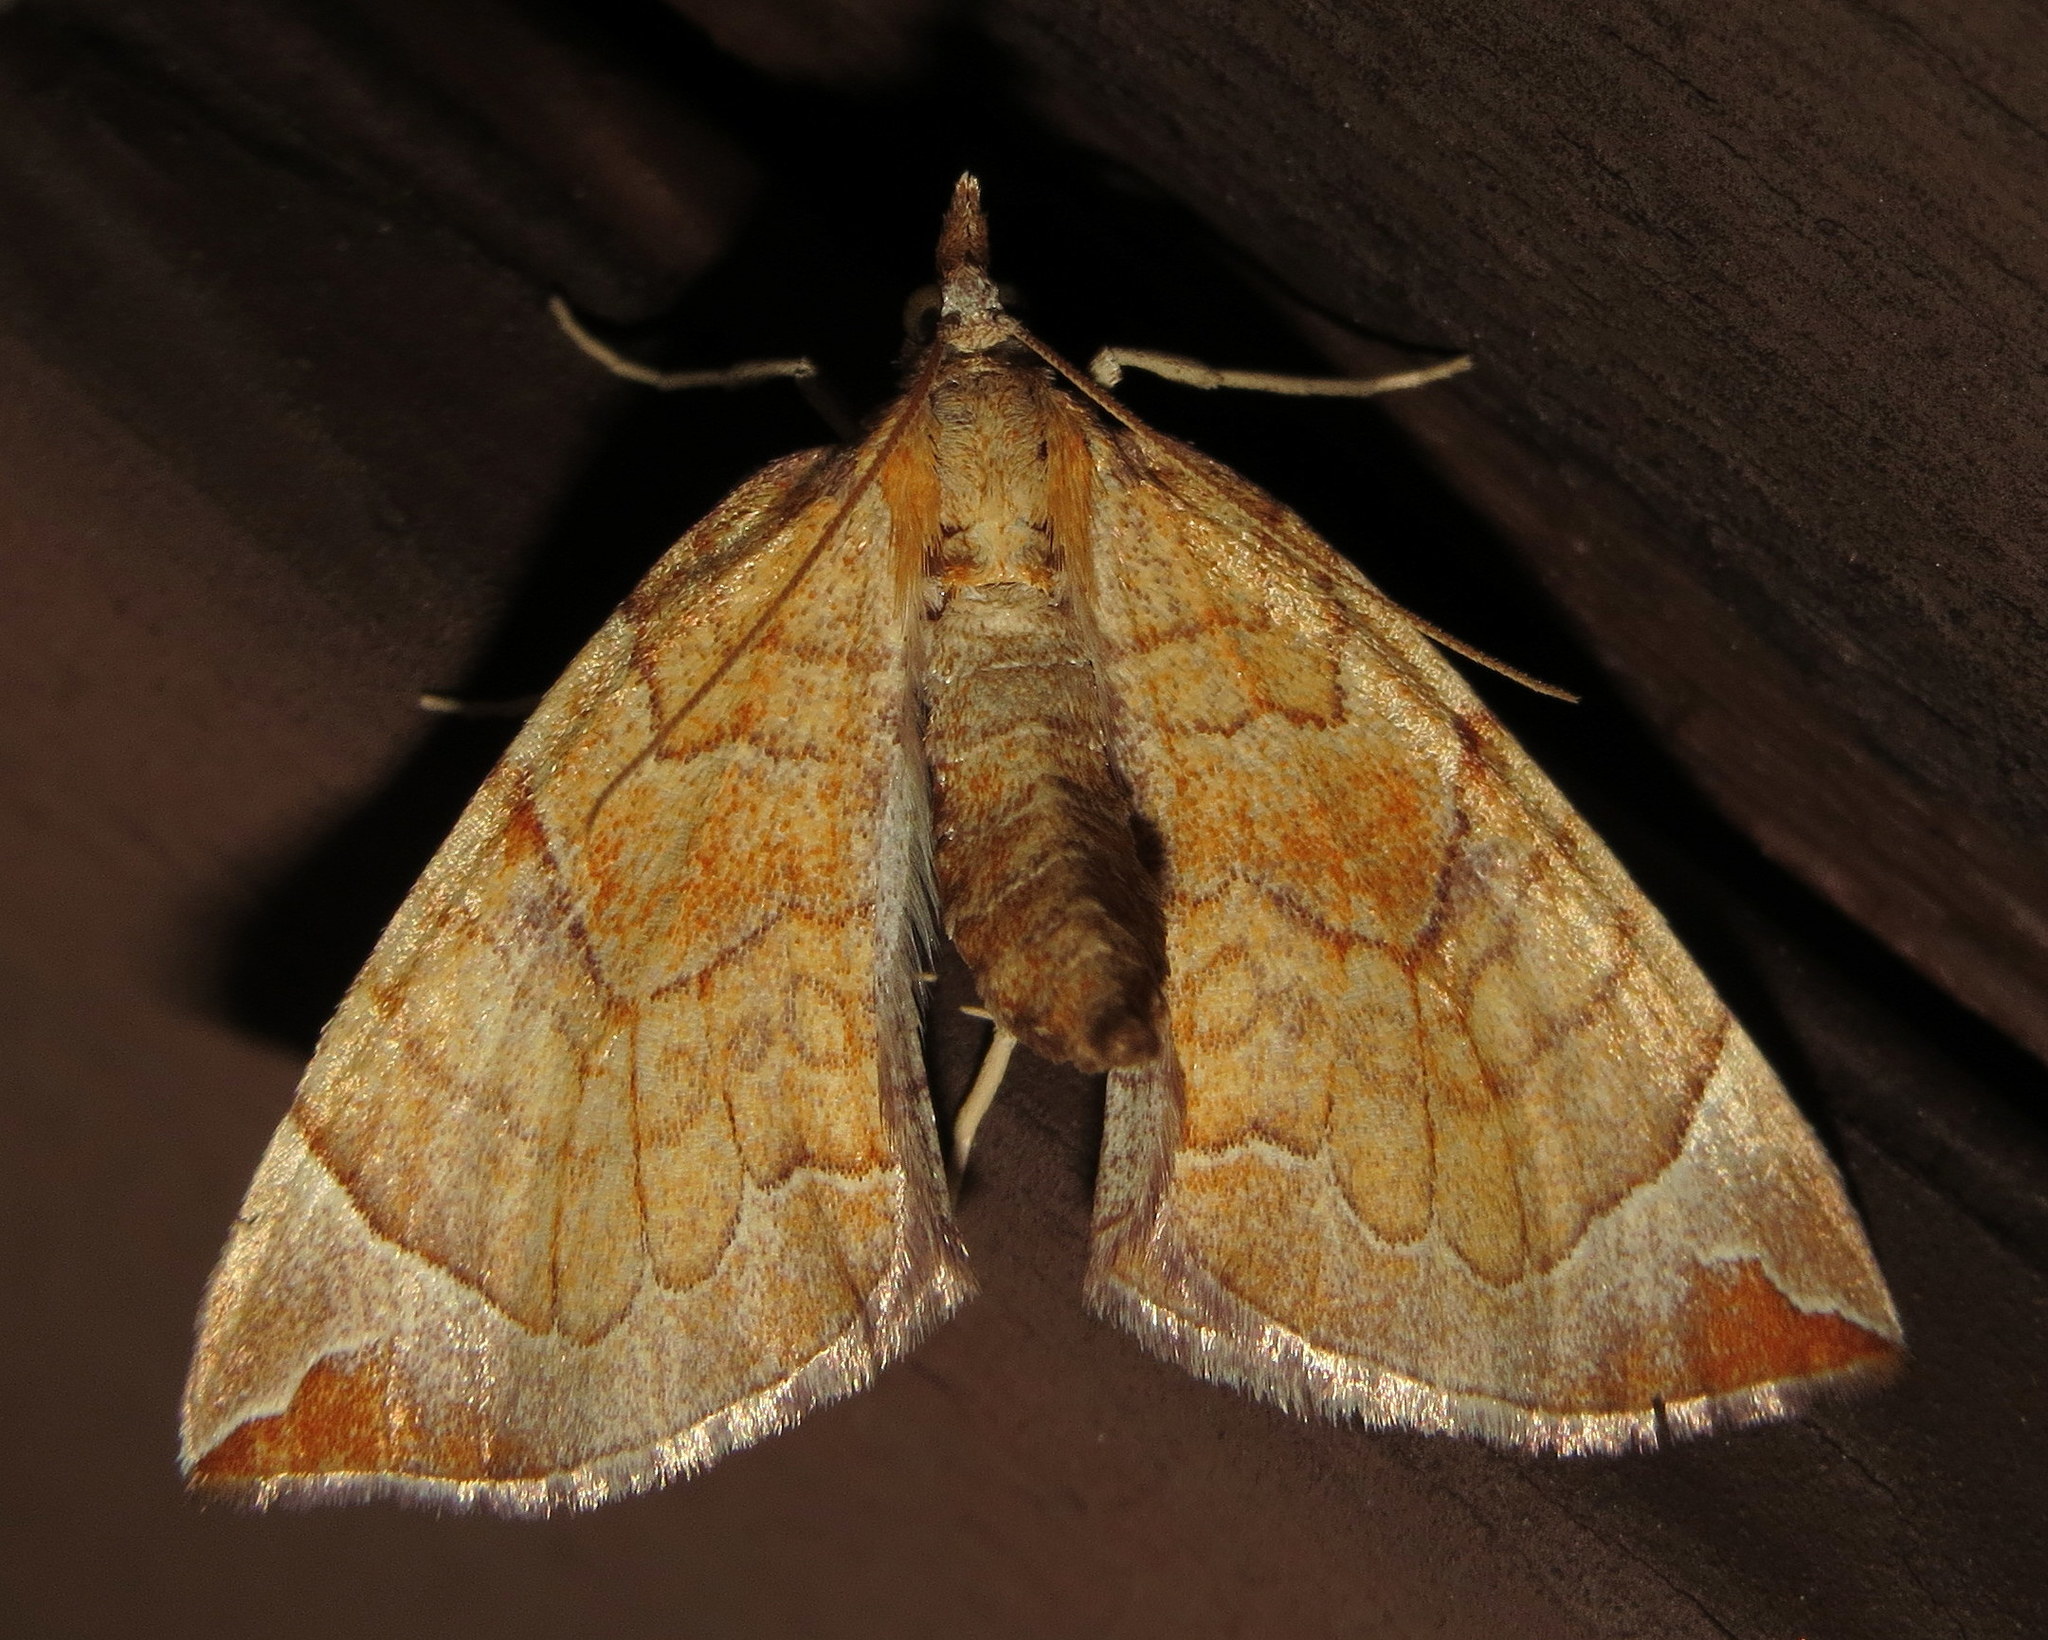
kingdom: Animalia
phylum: Arthropoda
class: Insecta
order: Lepidoptera
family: Geometridae
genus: Eulithis
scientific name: Eulithis testata
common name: Chevron
